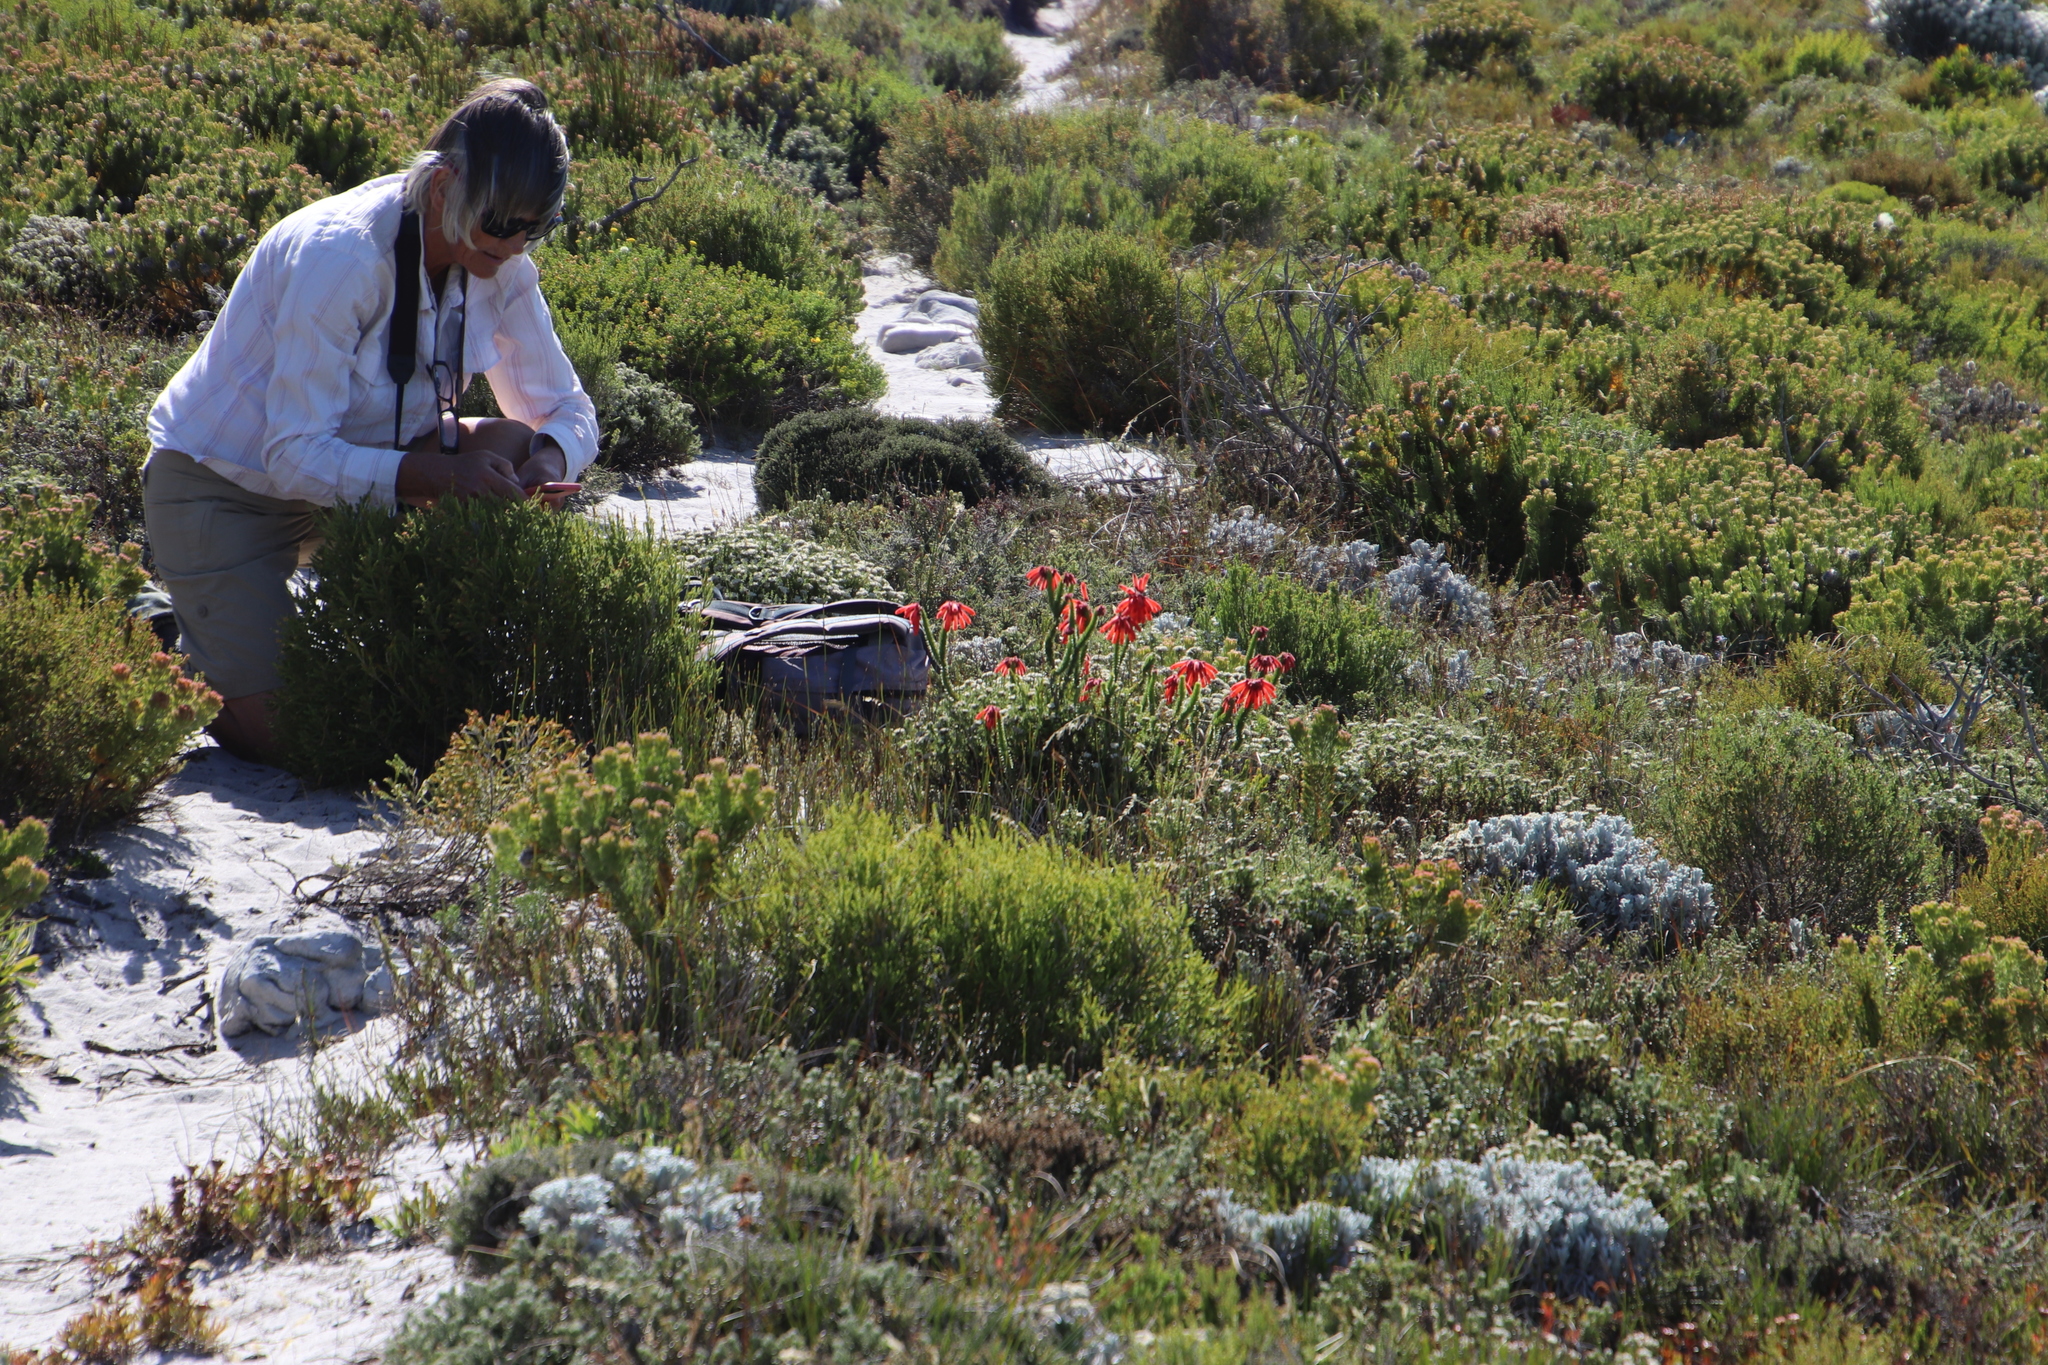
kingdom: Plantae
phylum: Tracheophyta
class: Magnoliopsida
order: Ericales
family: Ericaceae
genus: Erica
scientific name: Erica cerinthoides
